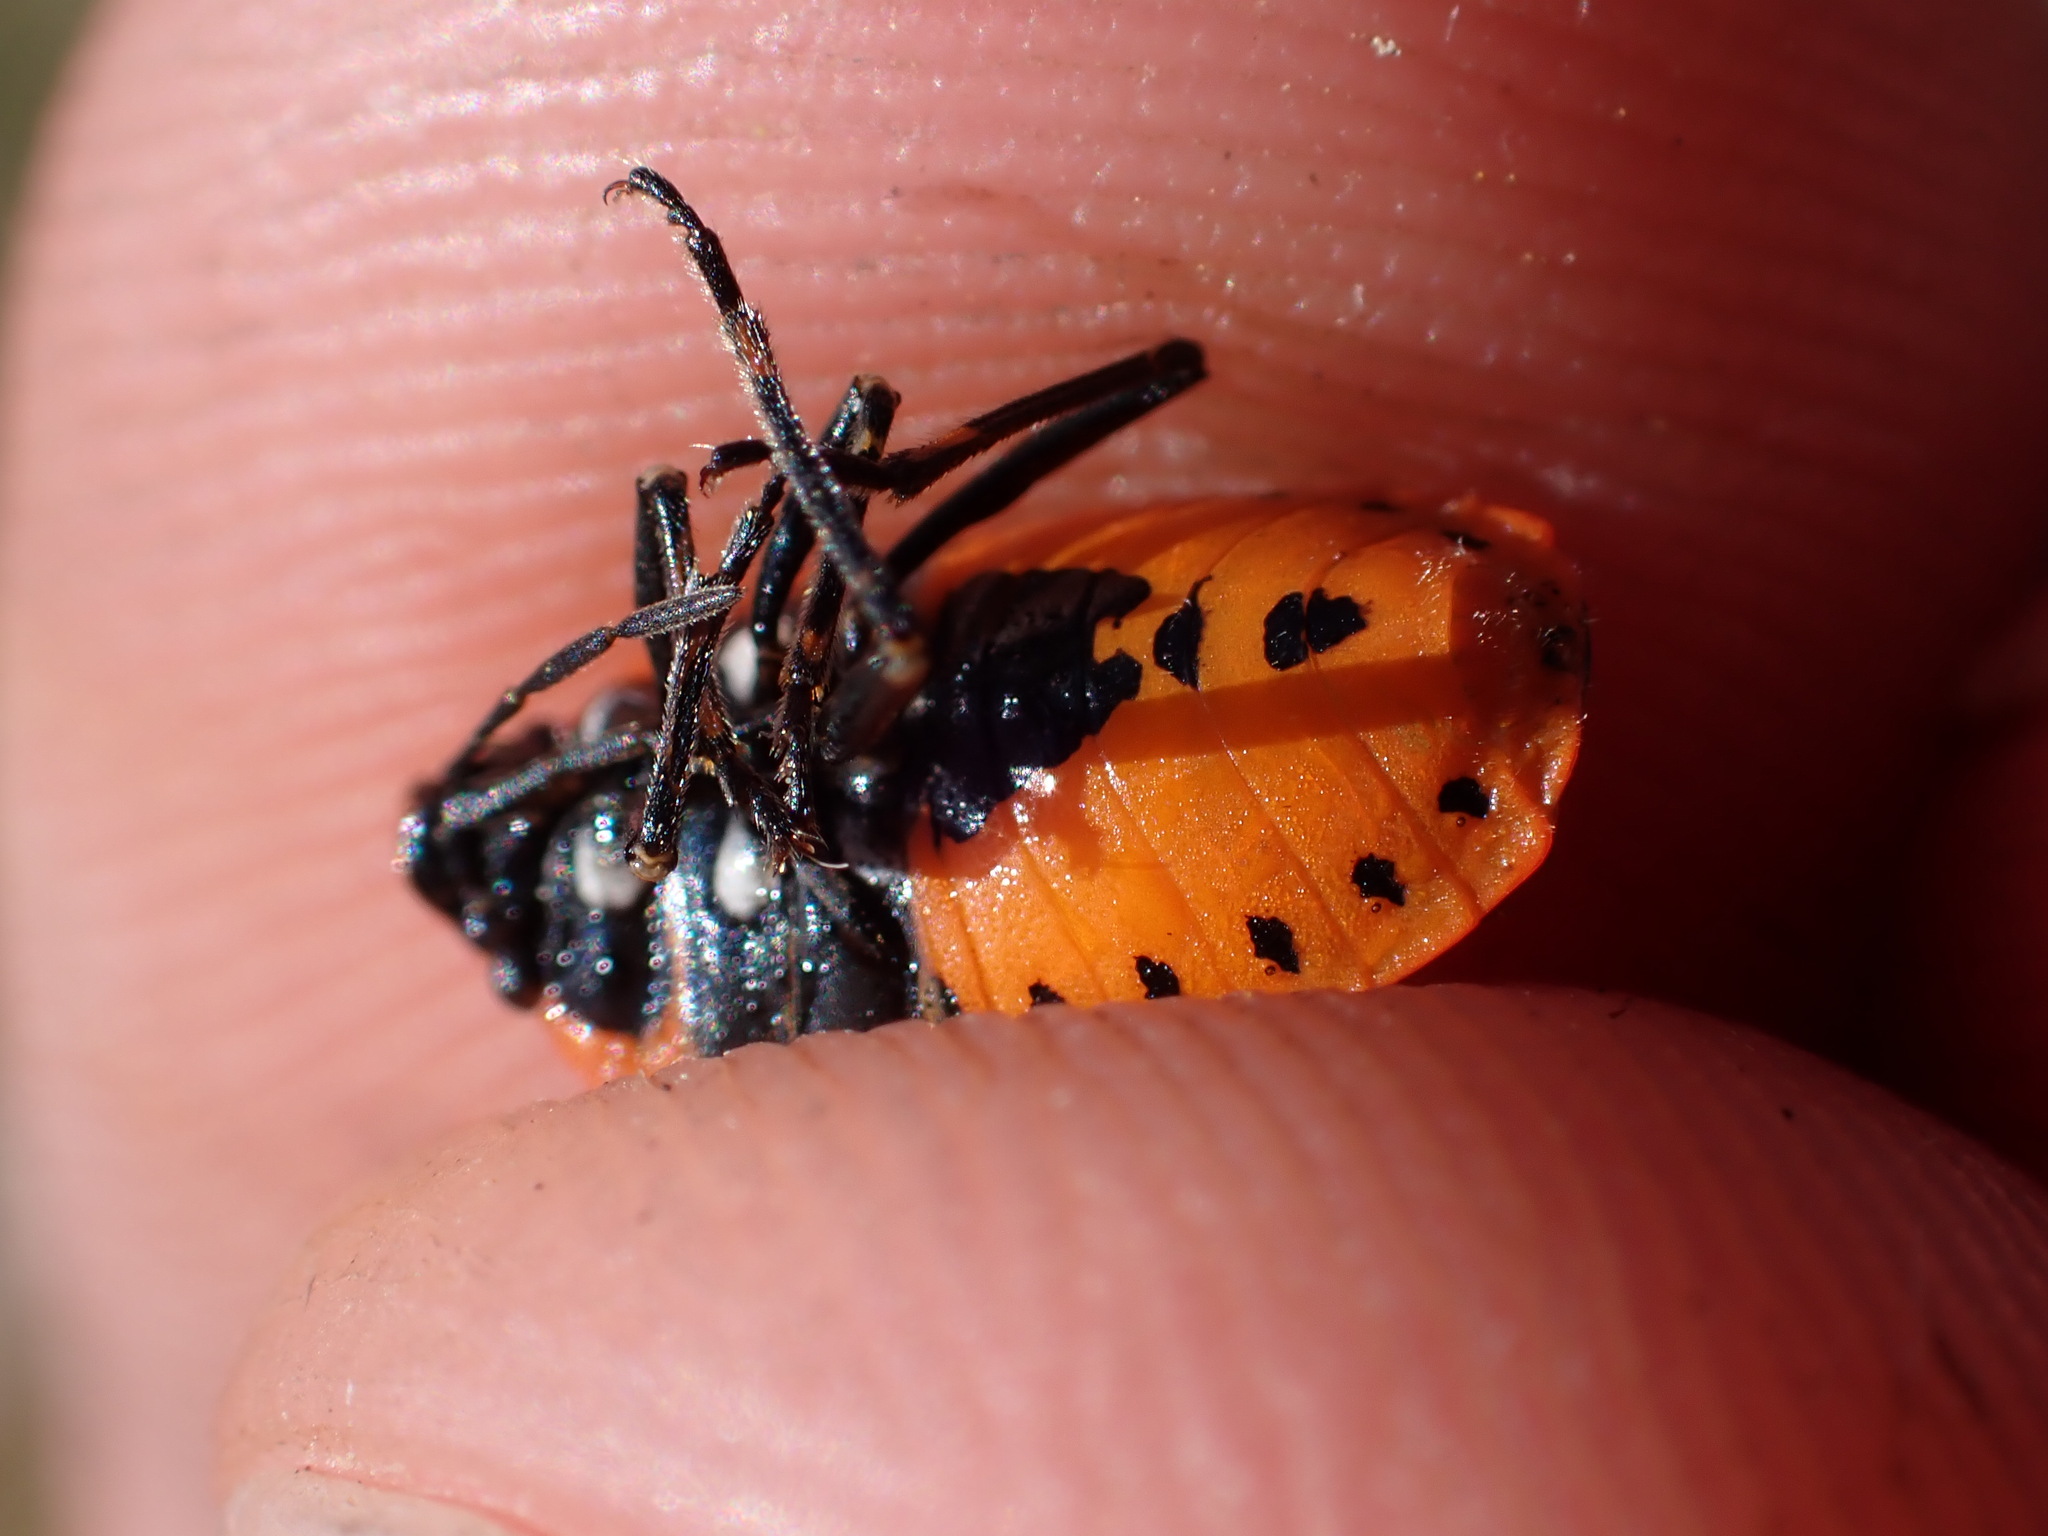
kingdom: Animalia
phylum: Arthropoda
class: Insecta
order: Hemiptera
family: Pentatomidae
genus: Eurydema
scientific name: Eurydema ornata
